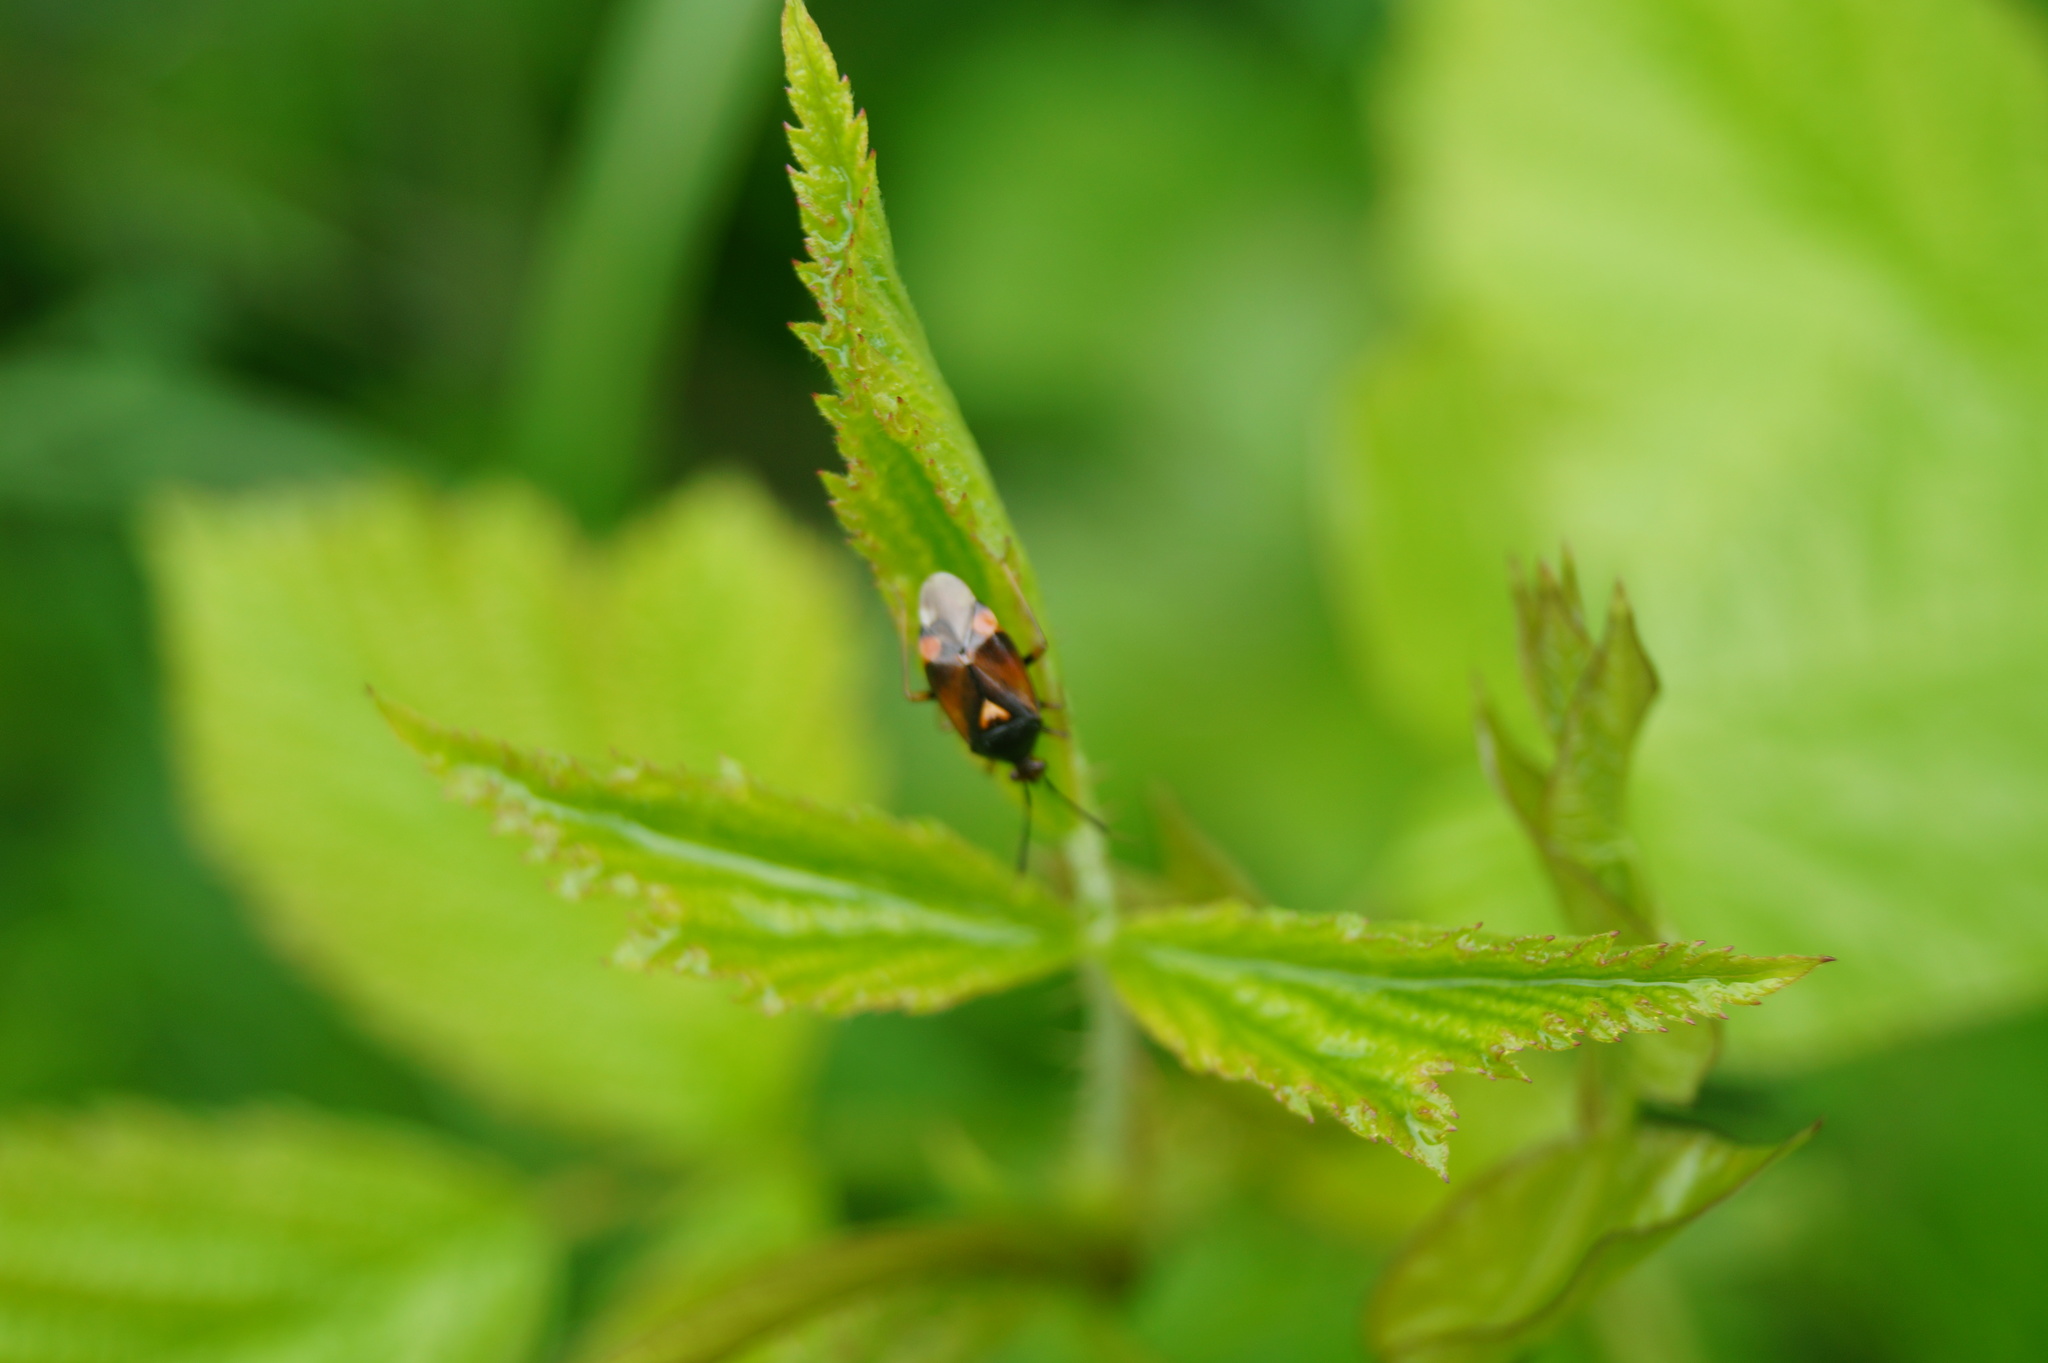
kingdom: Animalia
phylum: Arthropoda
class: Insecta
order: Hemiptera
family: Miridae
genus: Deraeocoris
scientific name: Deraeocoris ruber
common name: Plant bug
